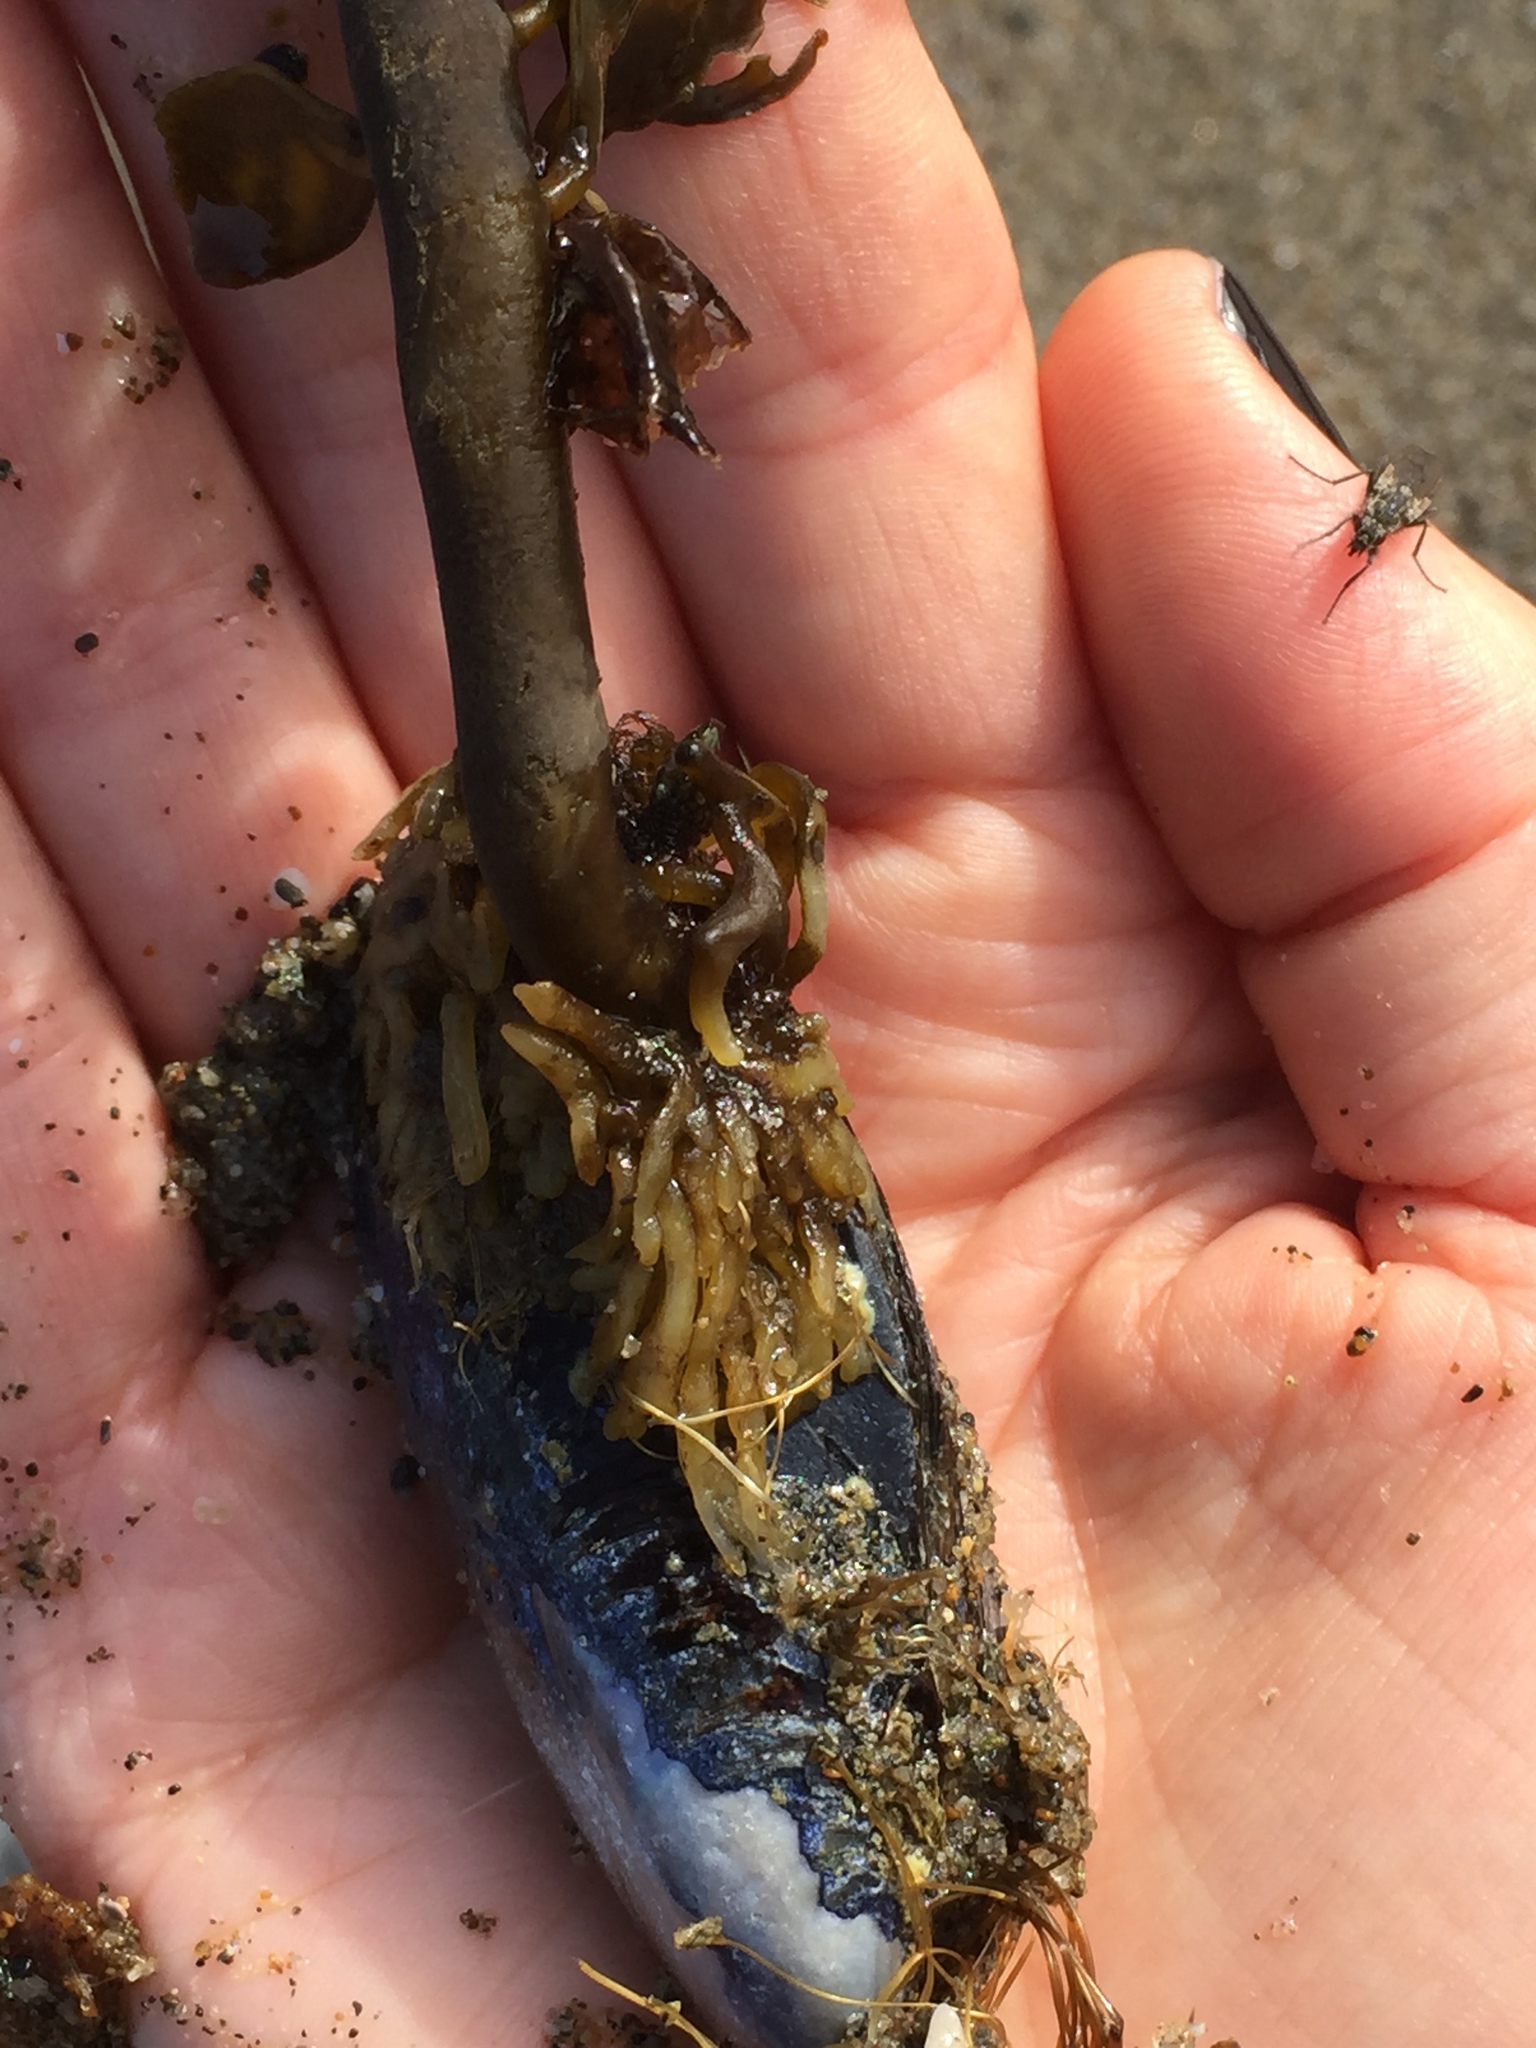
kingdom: Chromista
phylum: Ochrophyta
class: Phaeophyceae
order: Laminariales
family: Alariaceae
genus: Pterygophora
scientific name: Pterygophora californica
